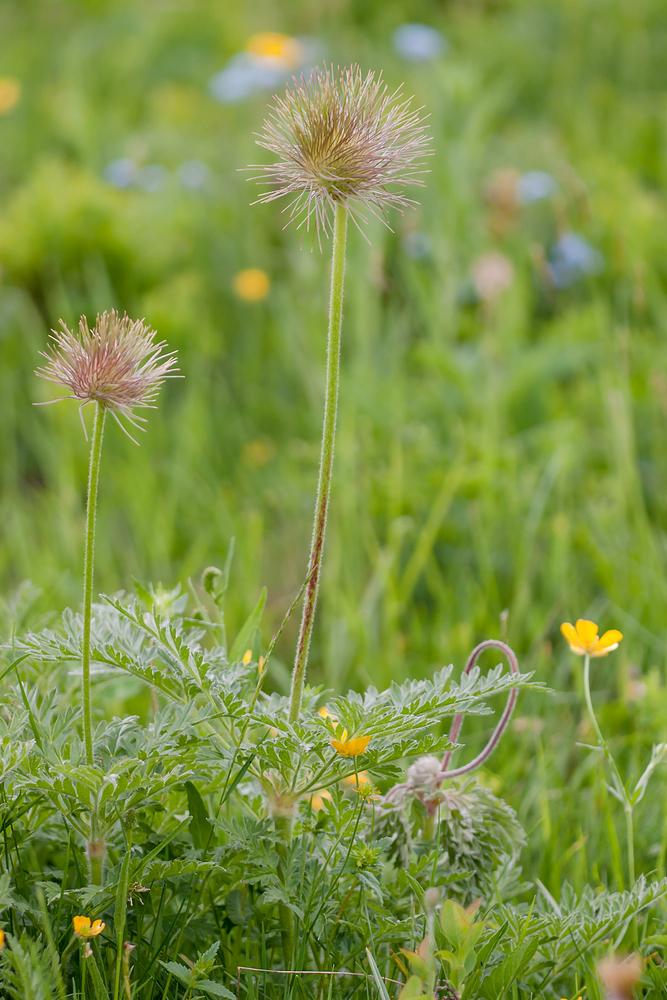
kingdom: Plantae
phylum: Tracheophyta
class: Magnoliopsida
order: Ranunculales
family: Ranunculaceae
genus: Pulsatilla
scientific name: Pulsatilla alpina
